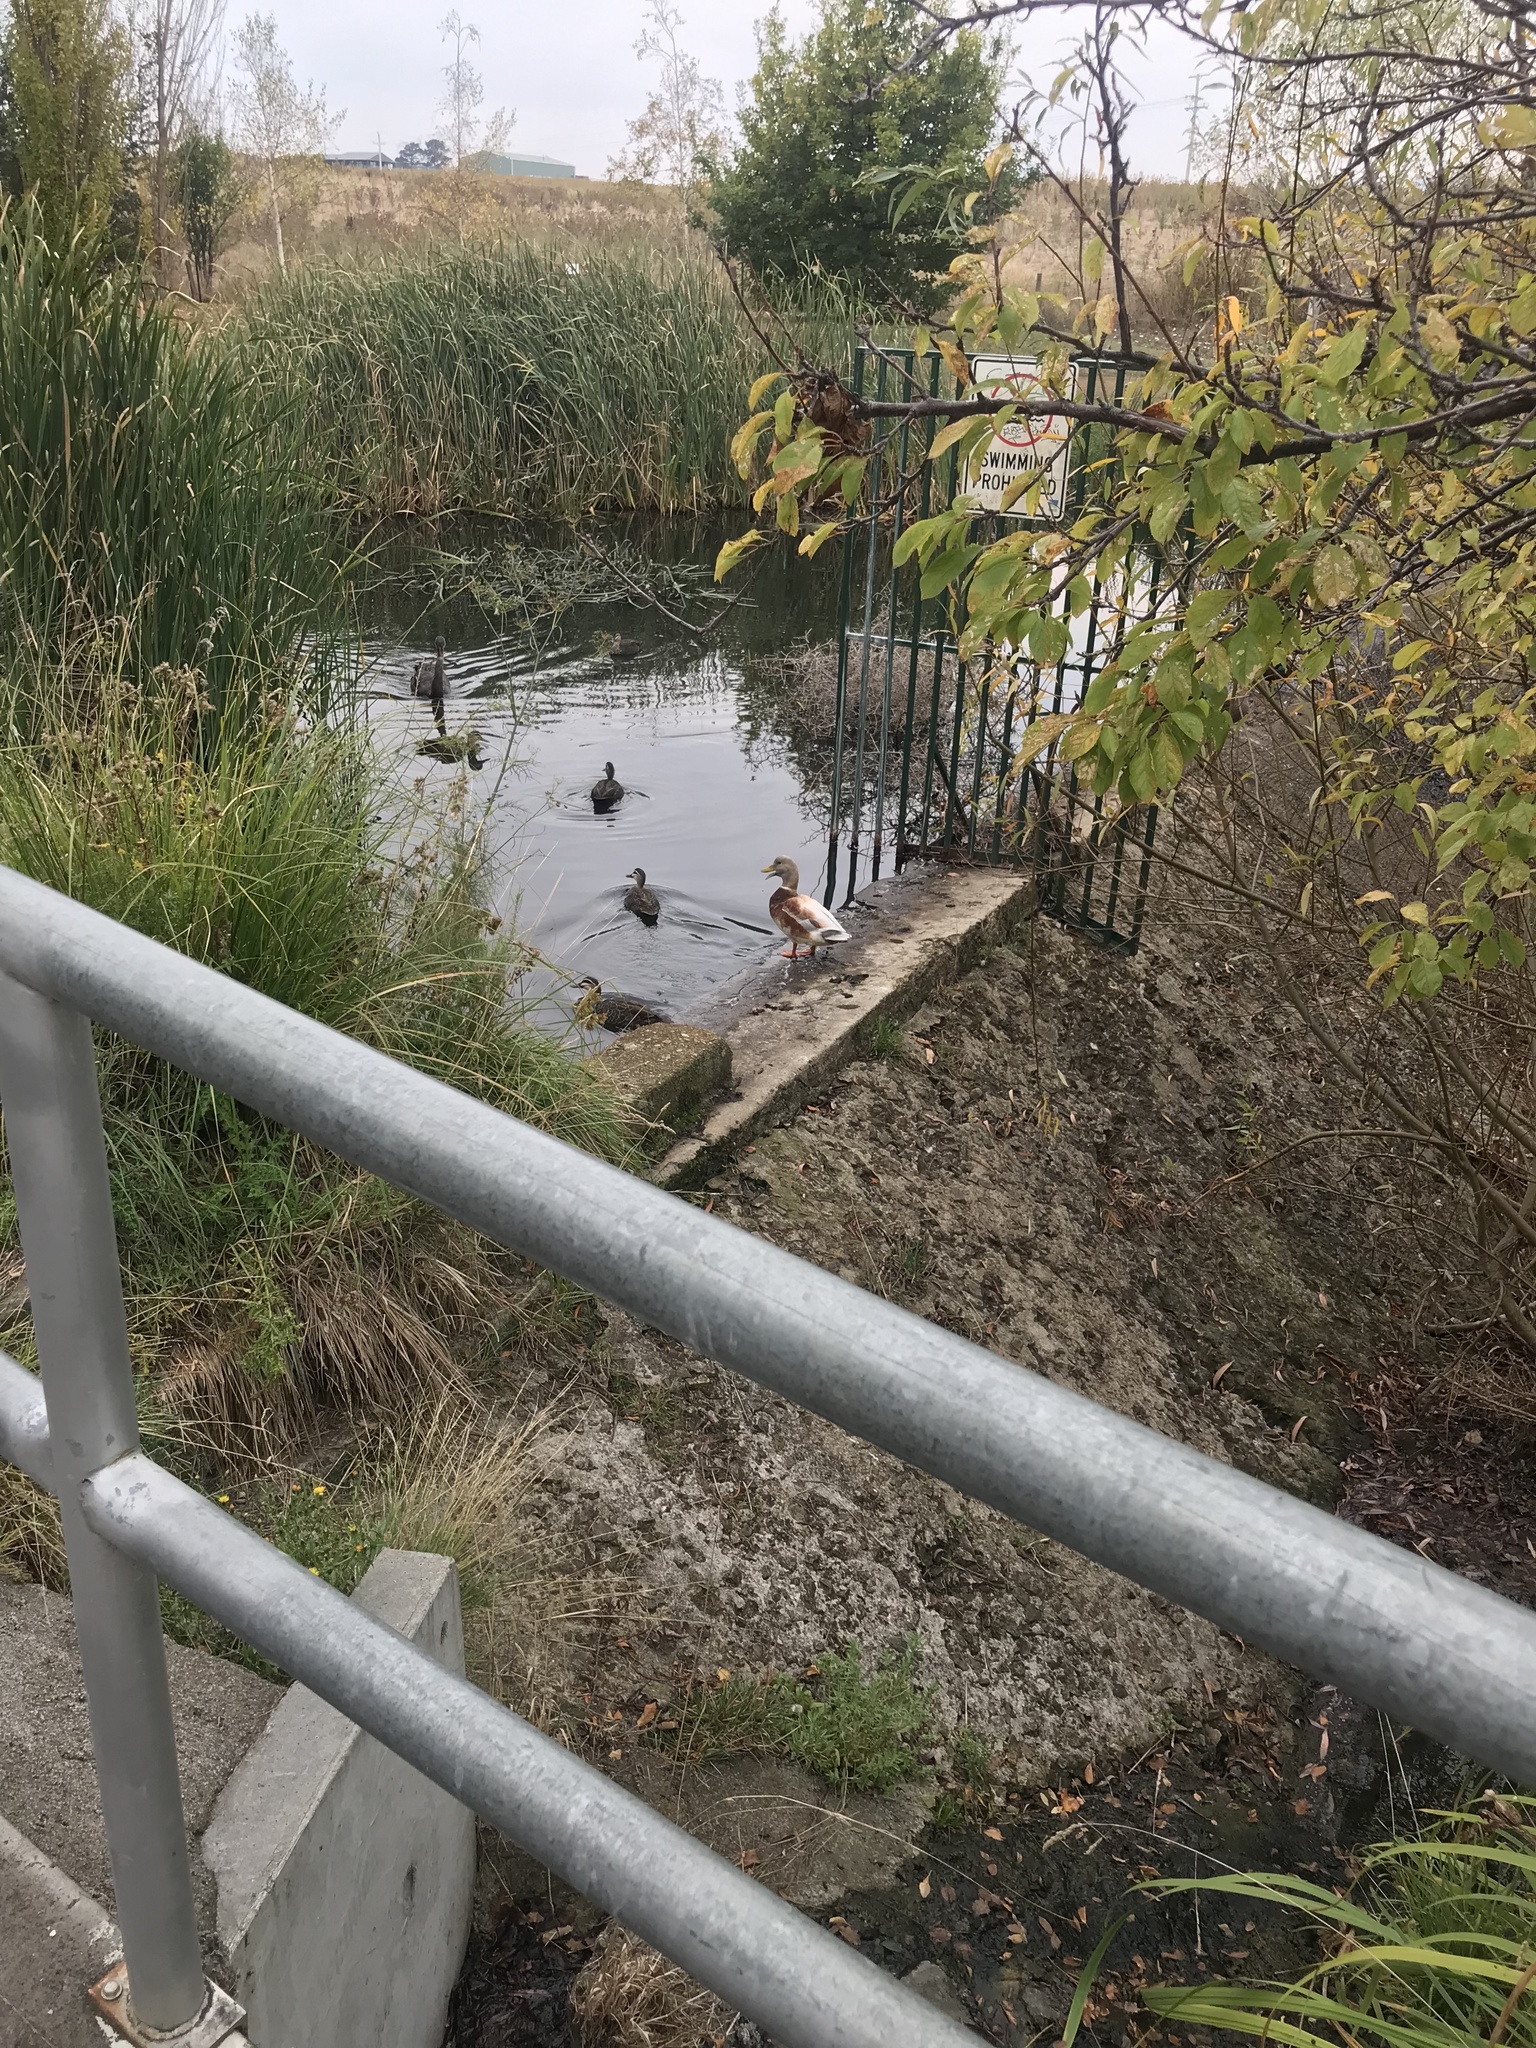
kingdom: Animalia
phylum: Chordata
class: Aves
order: Anseriformes
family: Anatidae
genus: Anas
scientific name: Anas platyrhynchos
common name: Mallard
